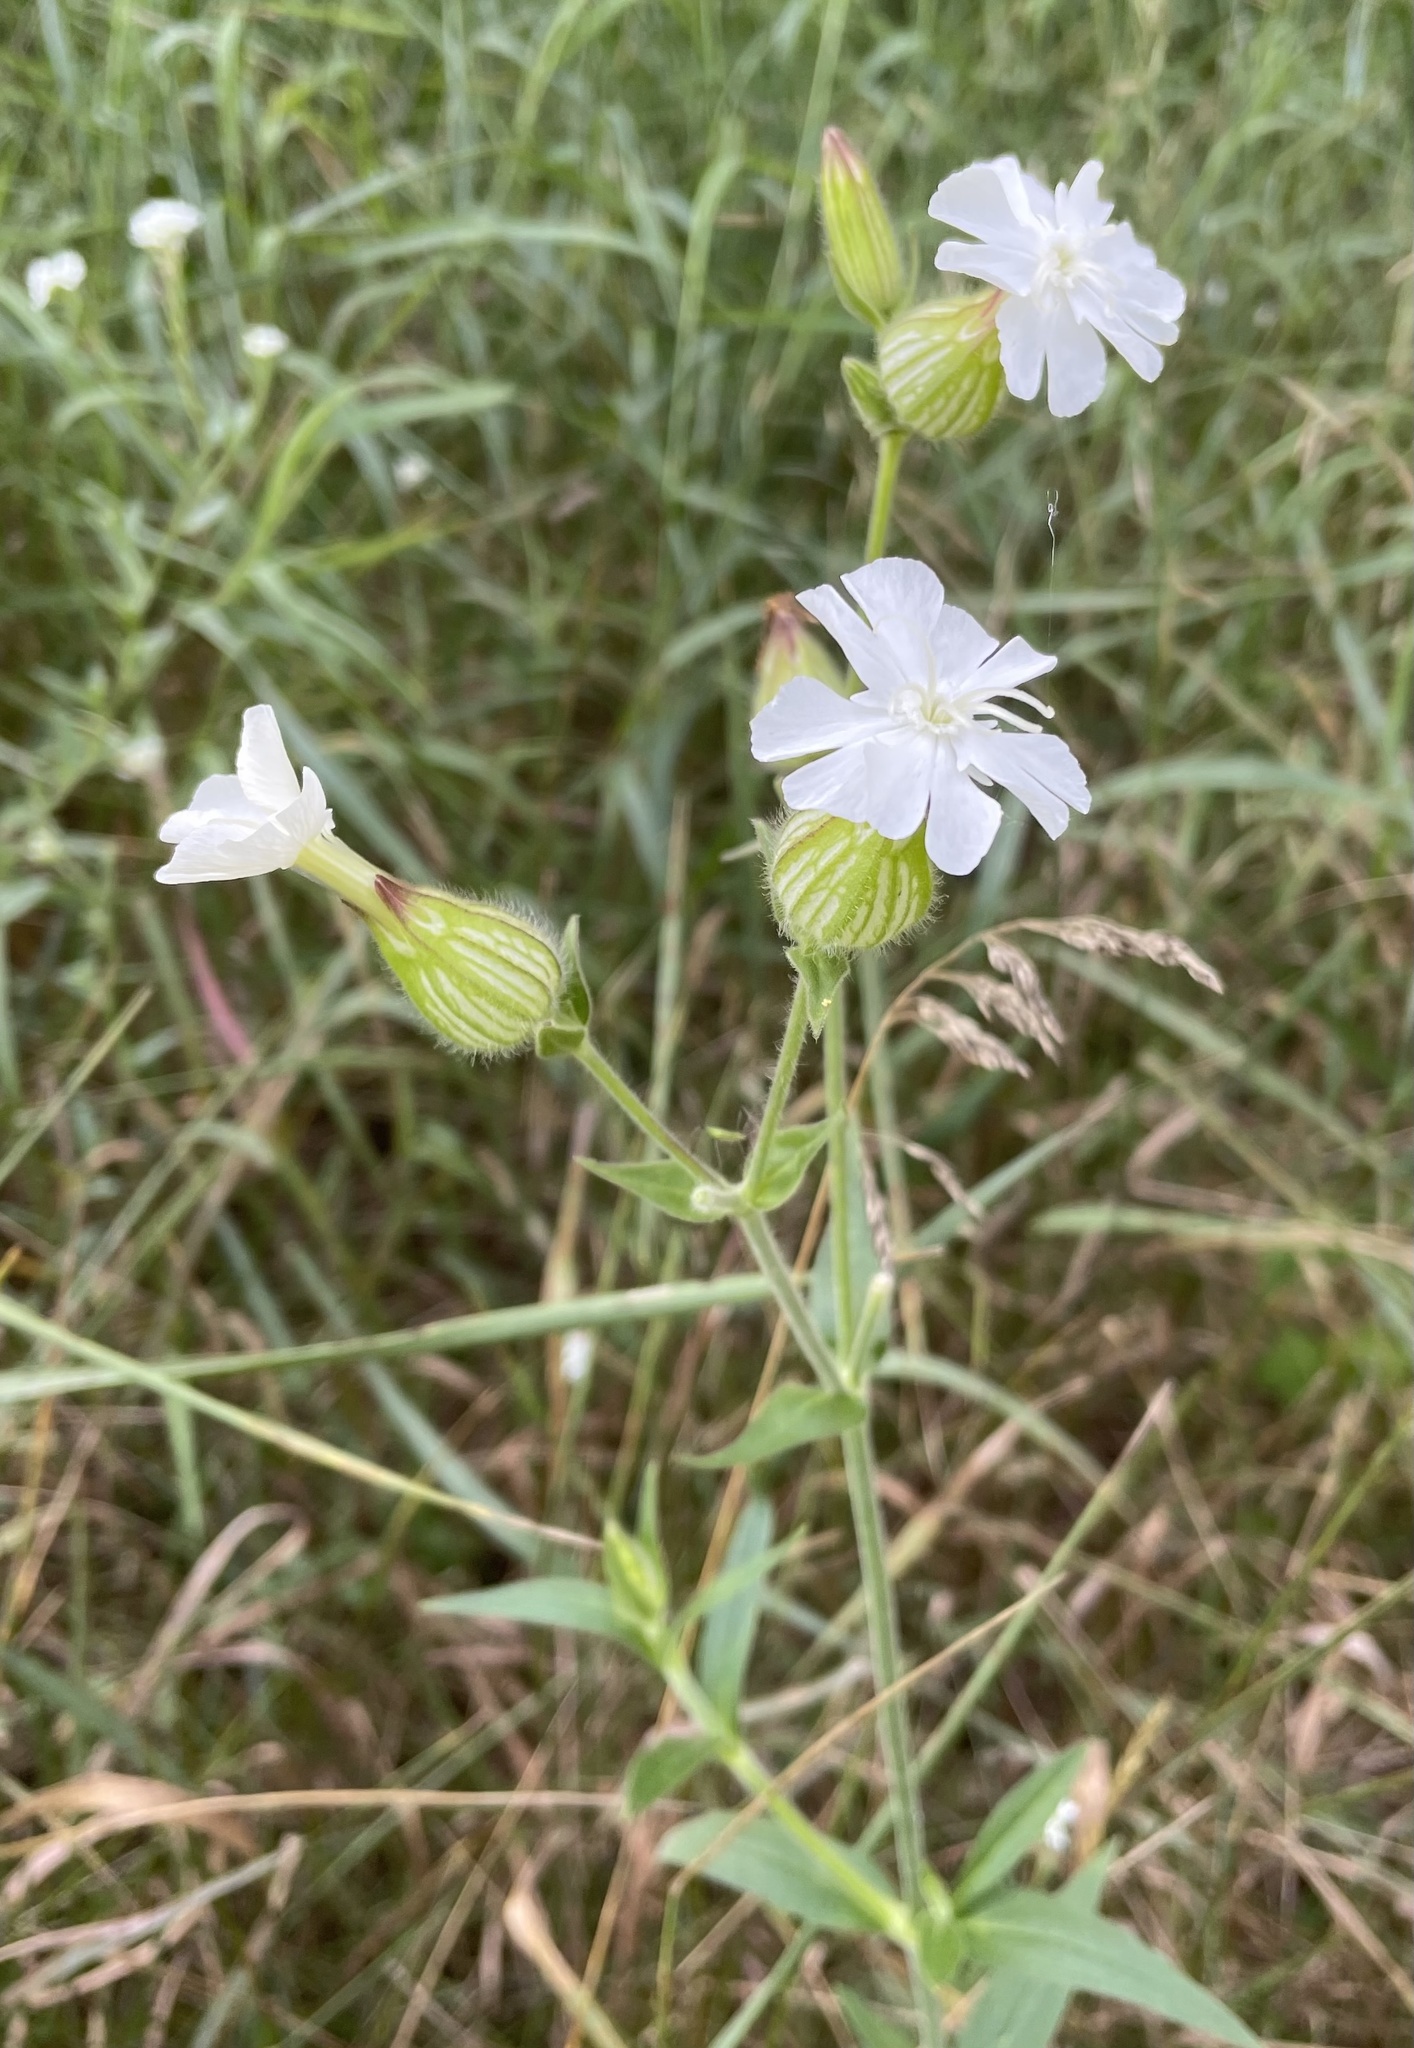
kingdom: Plantae
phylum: Tracheophyta
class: Magnoliopsida
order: Caryophyllales
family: Caryophyllaceae
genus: Silene
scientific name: Silene latifolia
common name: White campion
